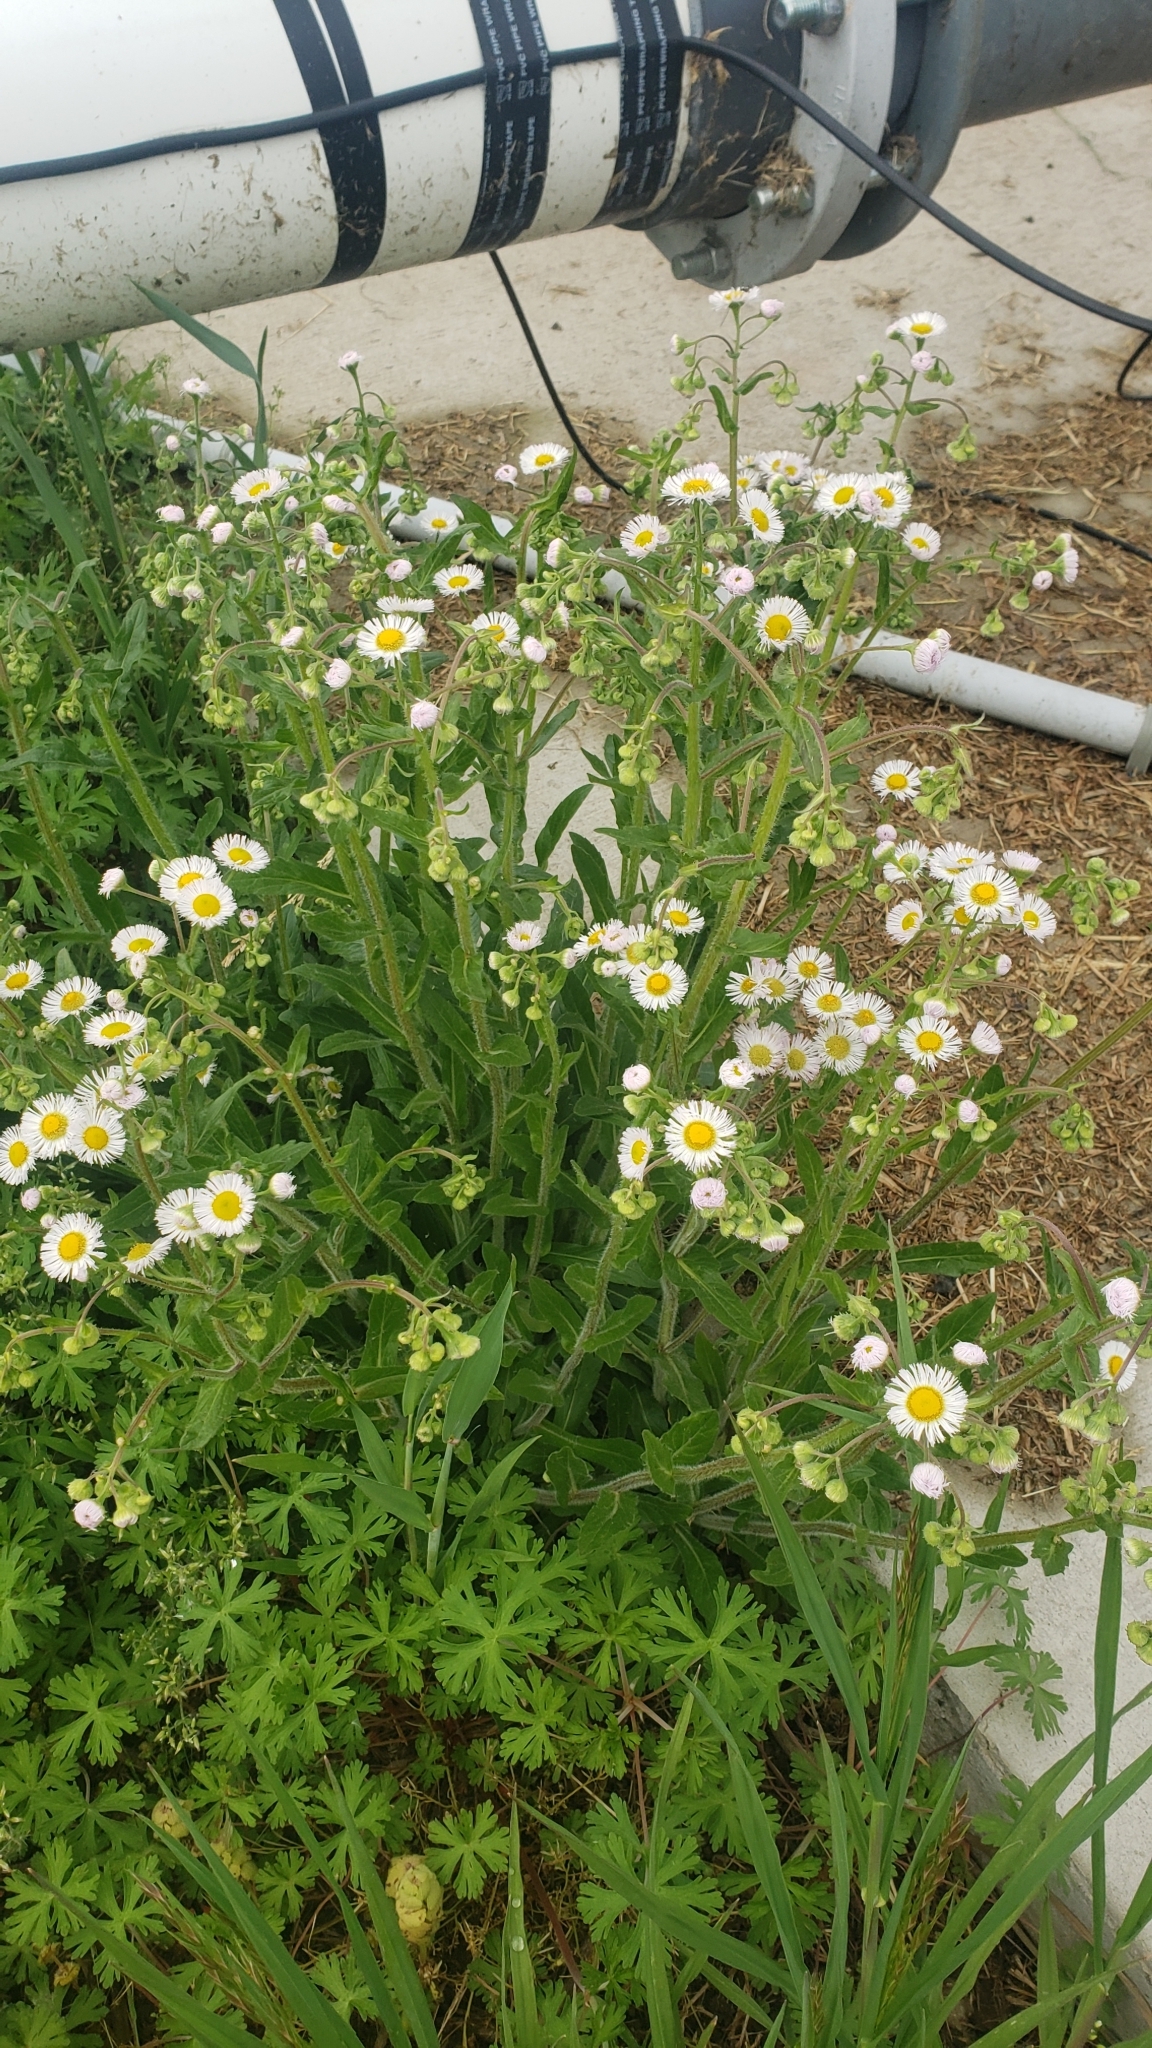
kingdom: Plantae
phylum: Tracheophyta
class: Magnoliopsida
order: Asterales
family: Asteraceae
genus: Erigeron
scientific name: Erigeron philadelphicus
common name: Robin's-plantain
